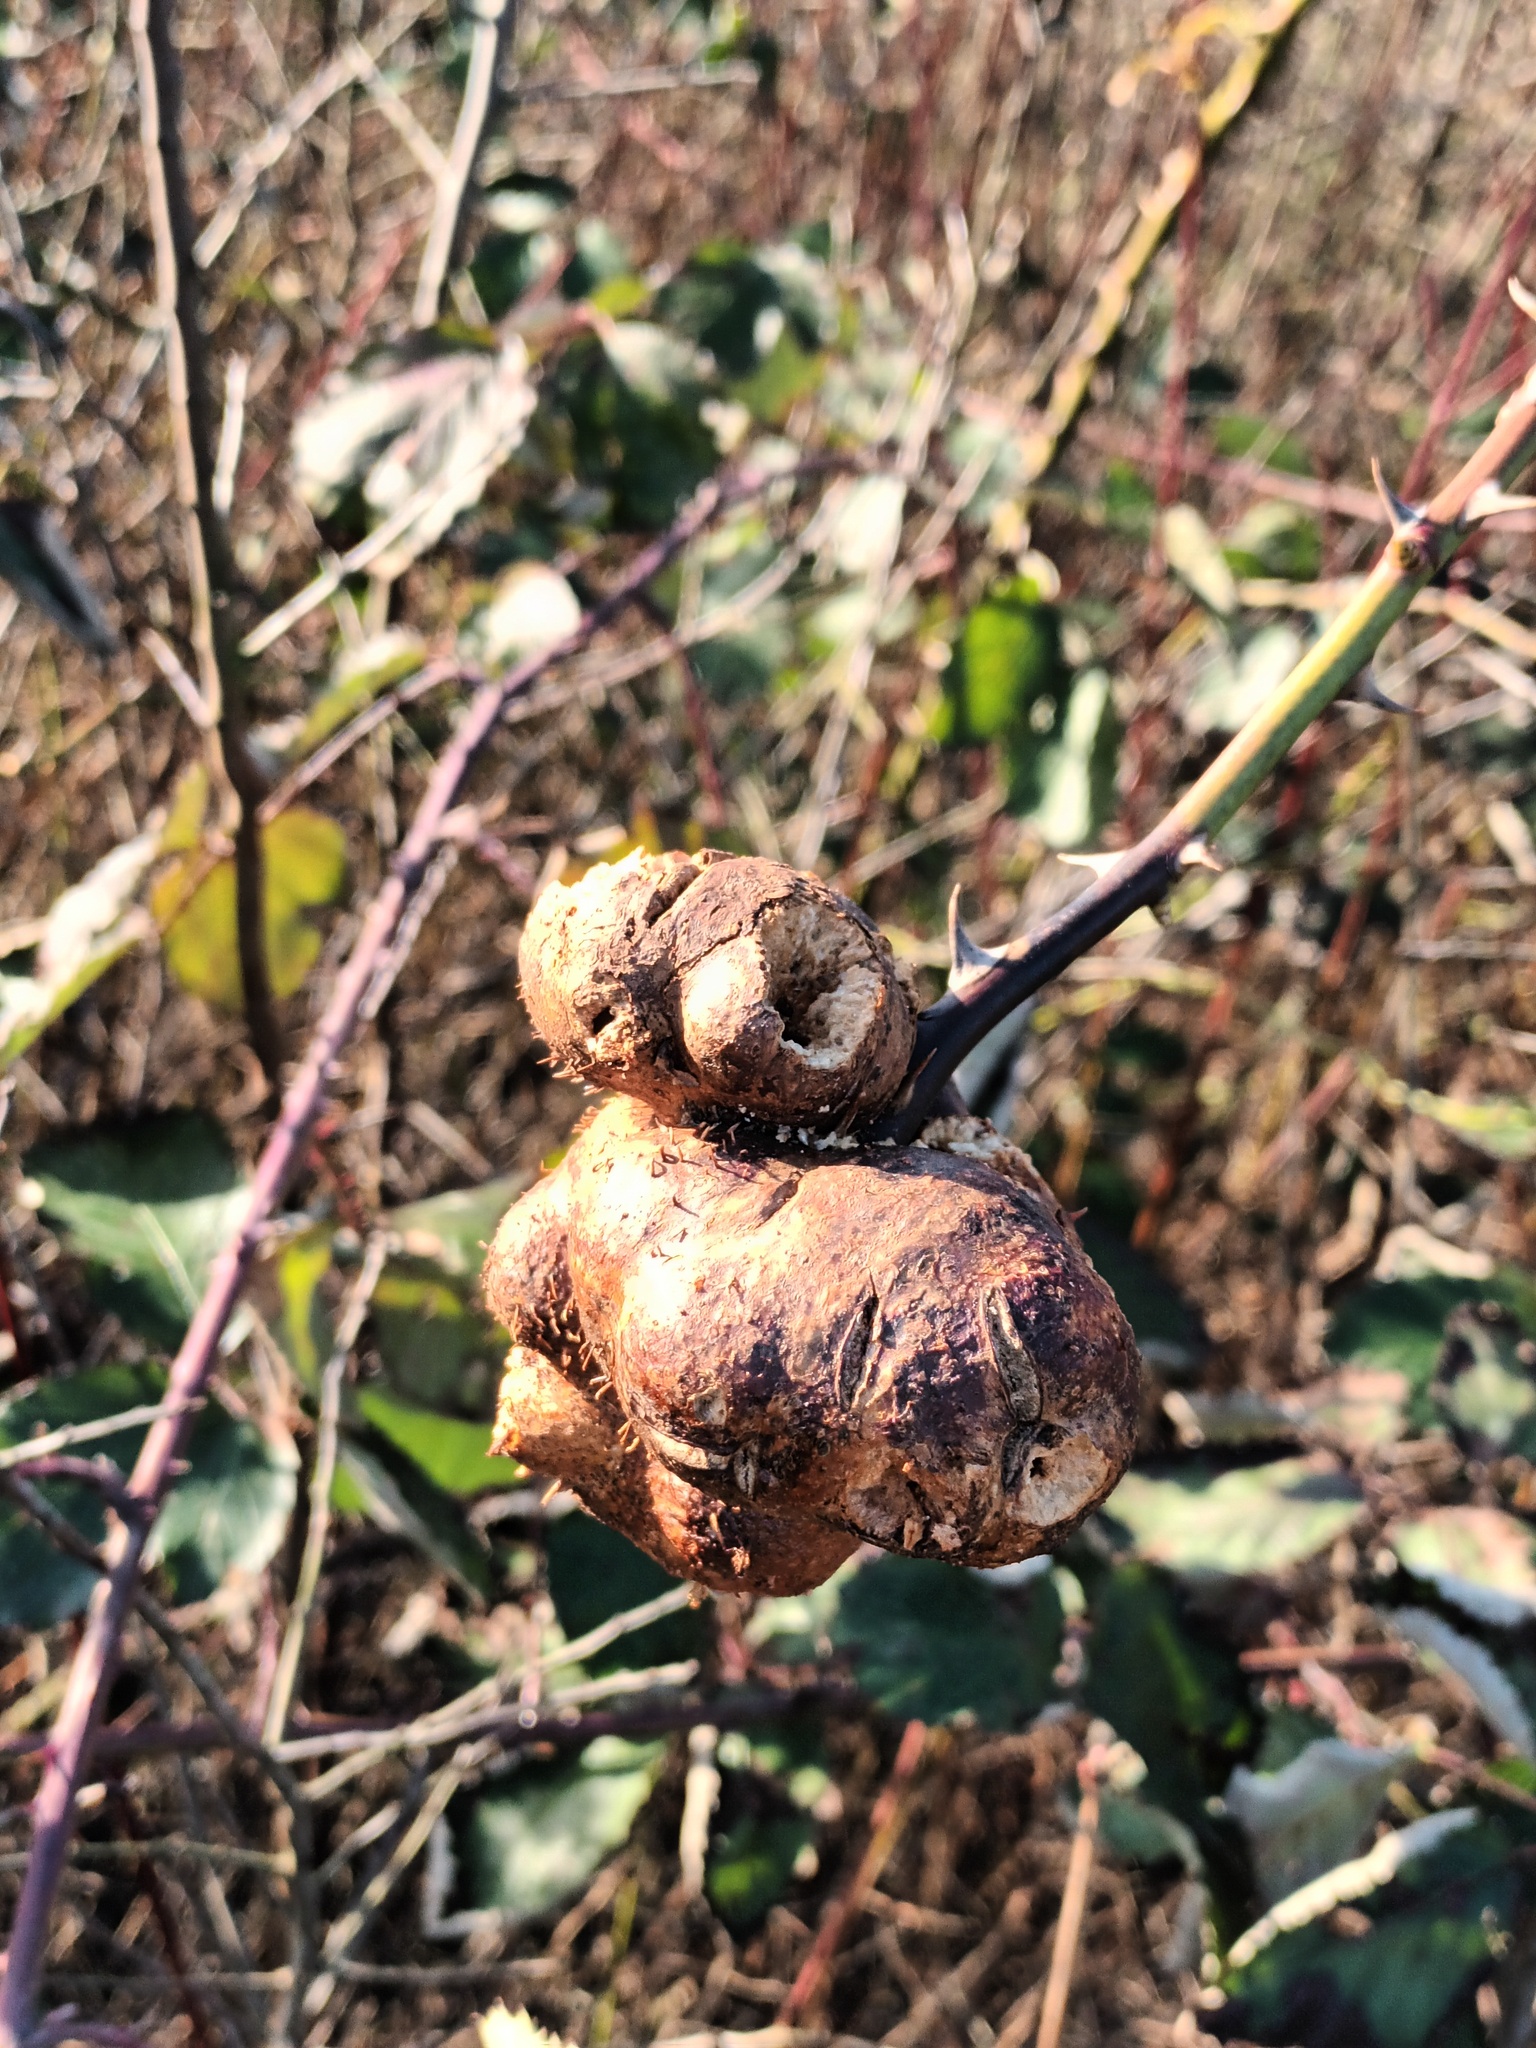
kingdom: Animalia
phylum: Arthropoda
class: Insecta
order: Hymenoptera
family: Cynipidae
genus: Diplolepis
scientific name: Diplolepis mayri
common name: Gall wasp
